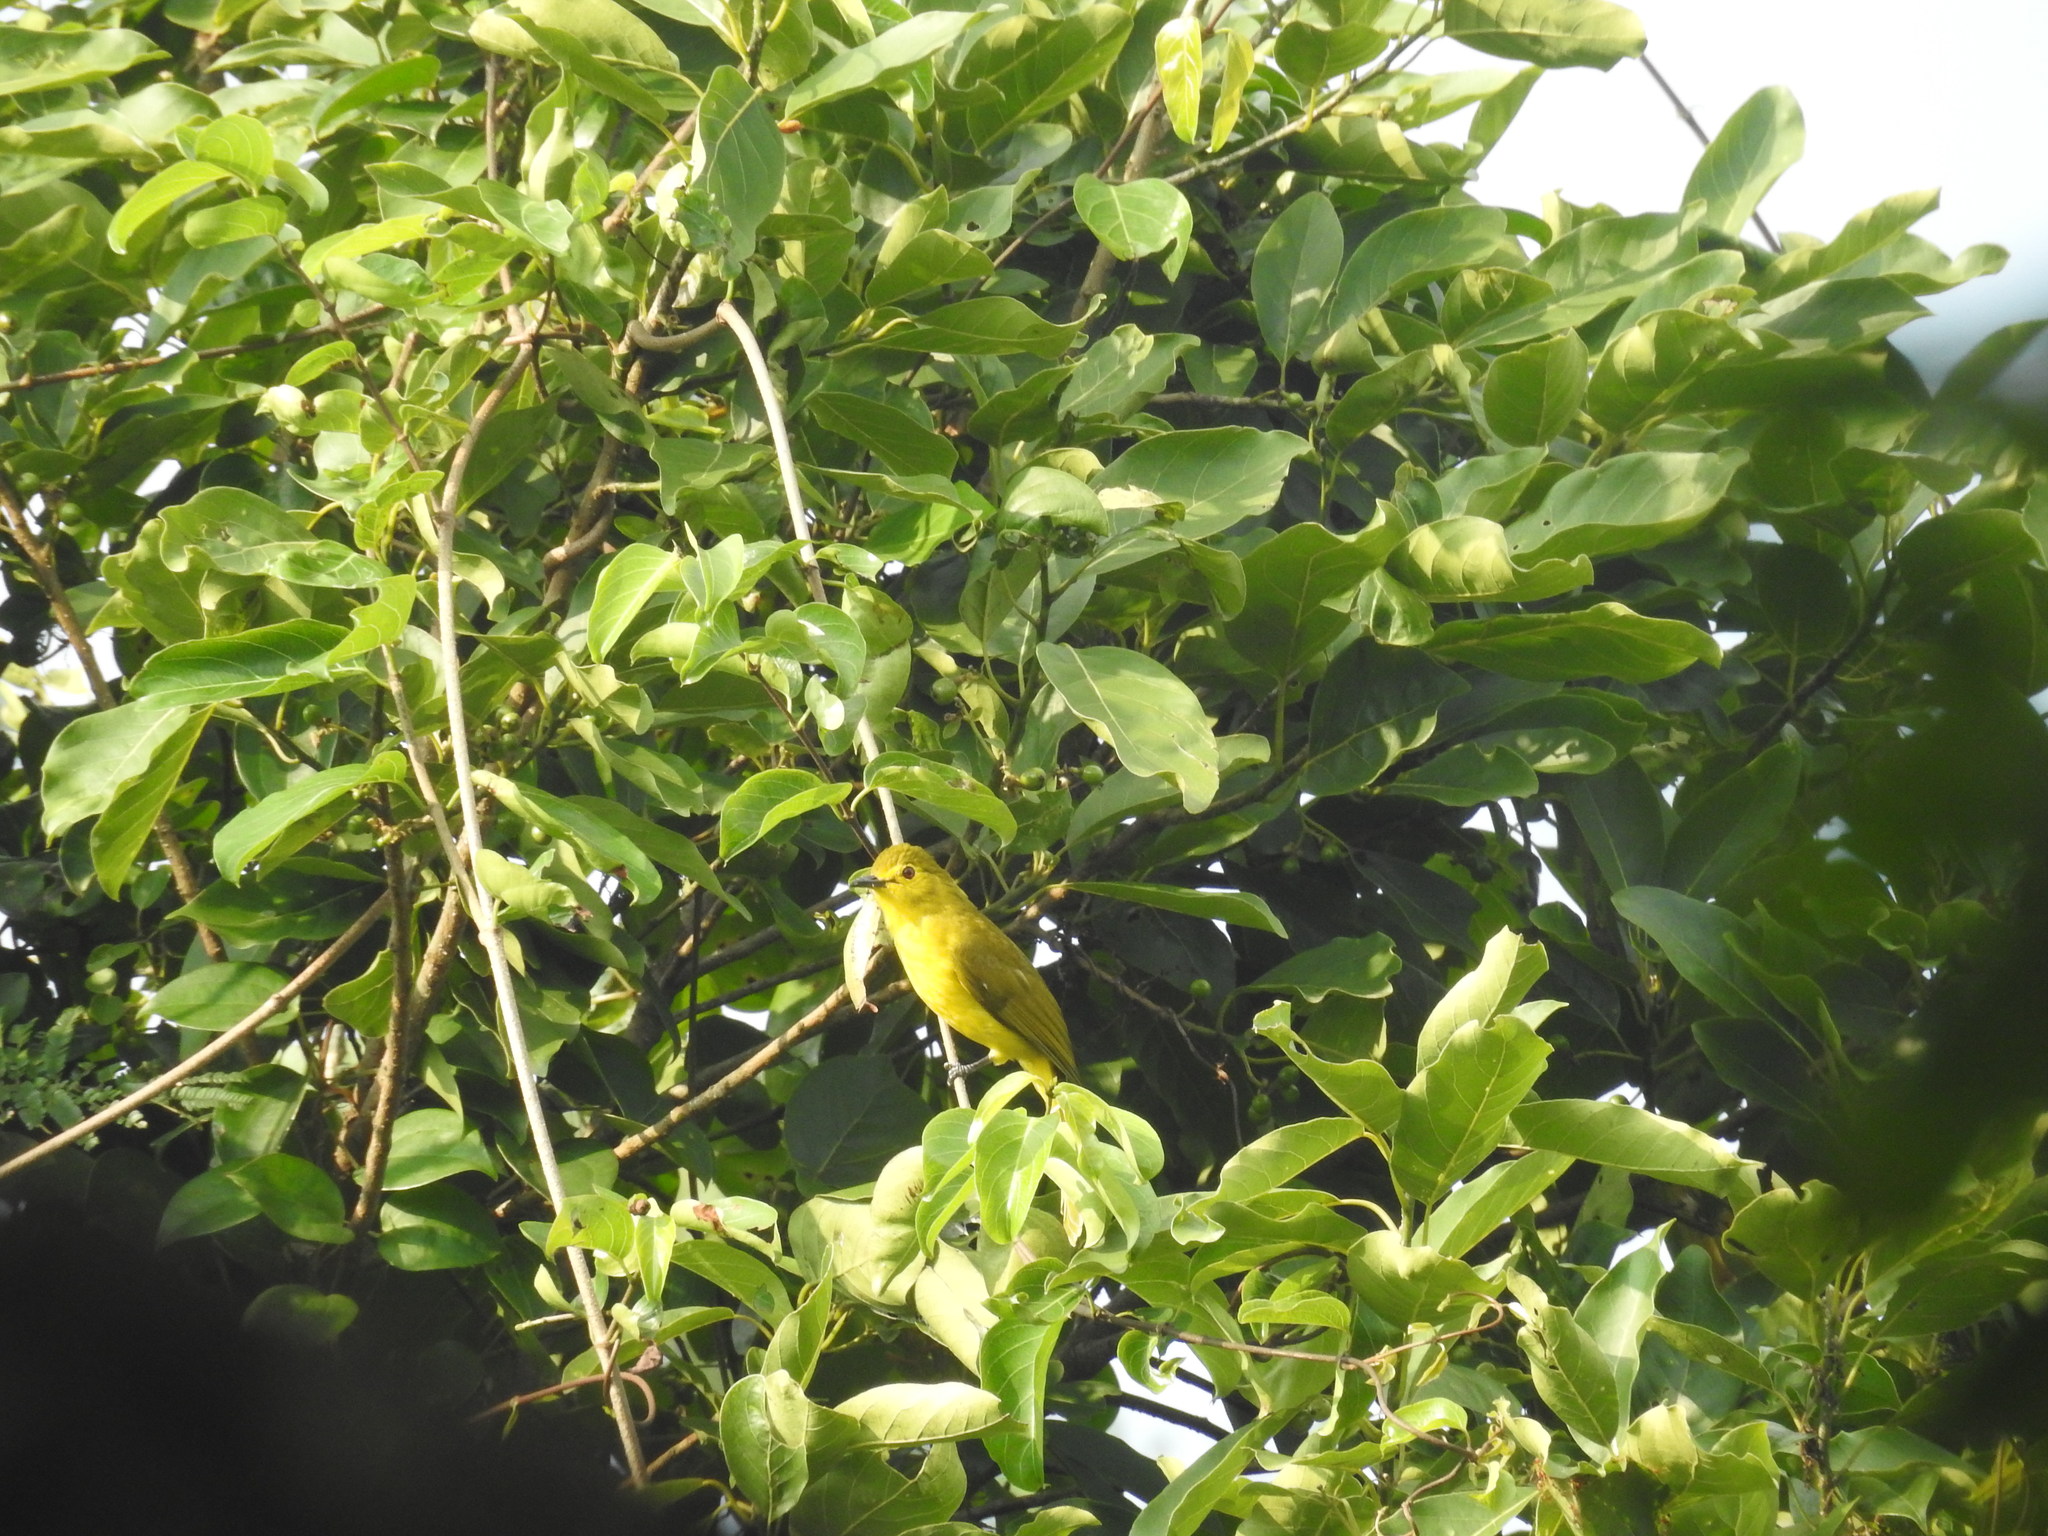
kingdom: Animalia
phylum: Chordata
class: Aves
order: Passeriformes
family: Pycnonotidae
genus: Acritillas
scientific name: Acritillas indica
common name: Yellow-browed bulbul
